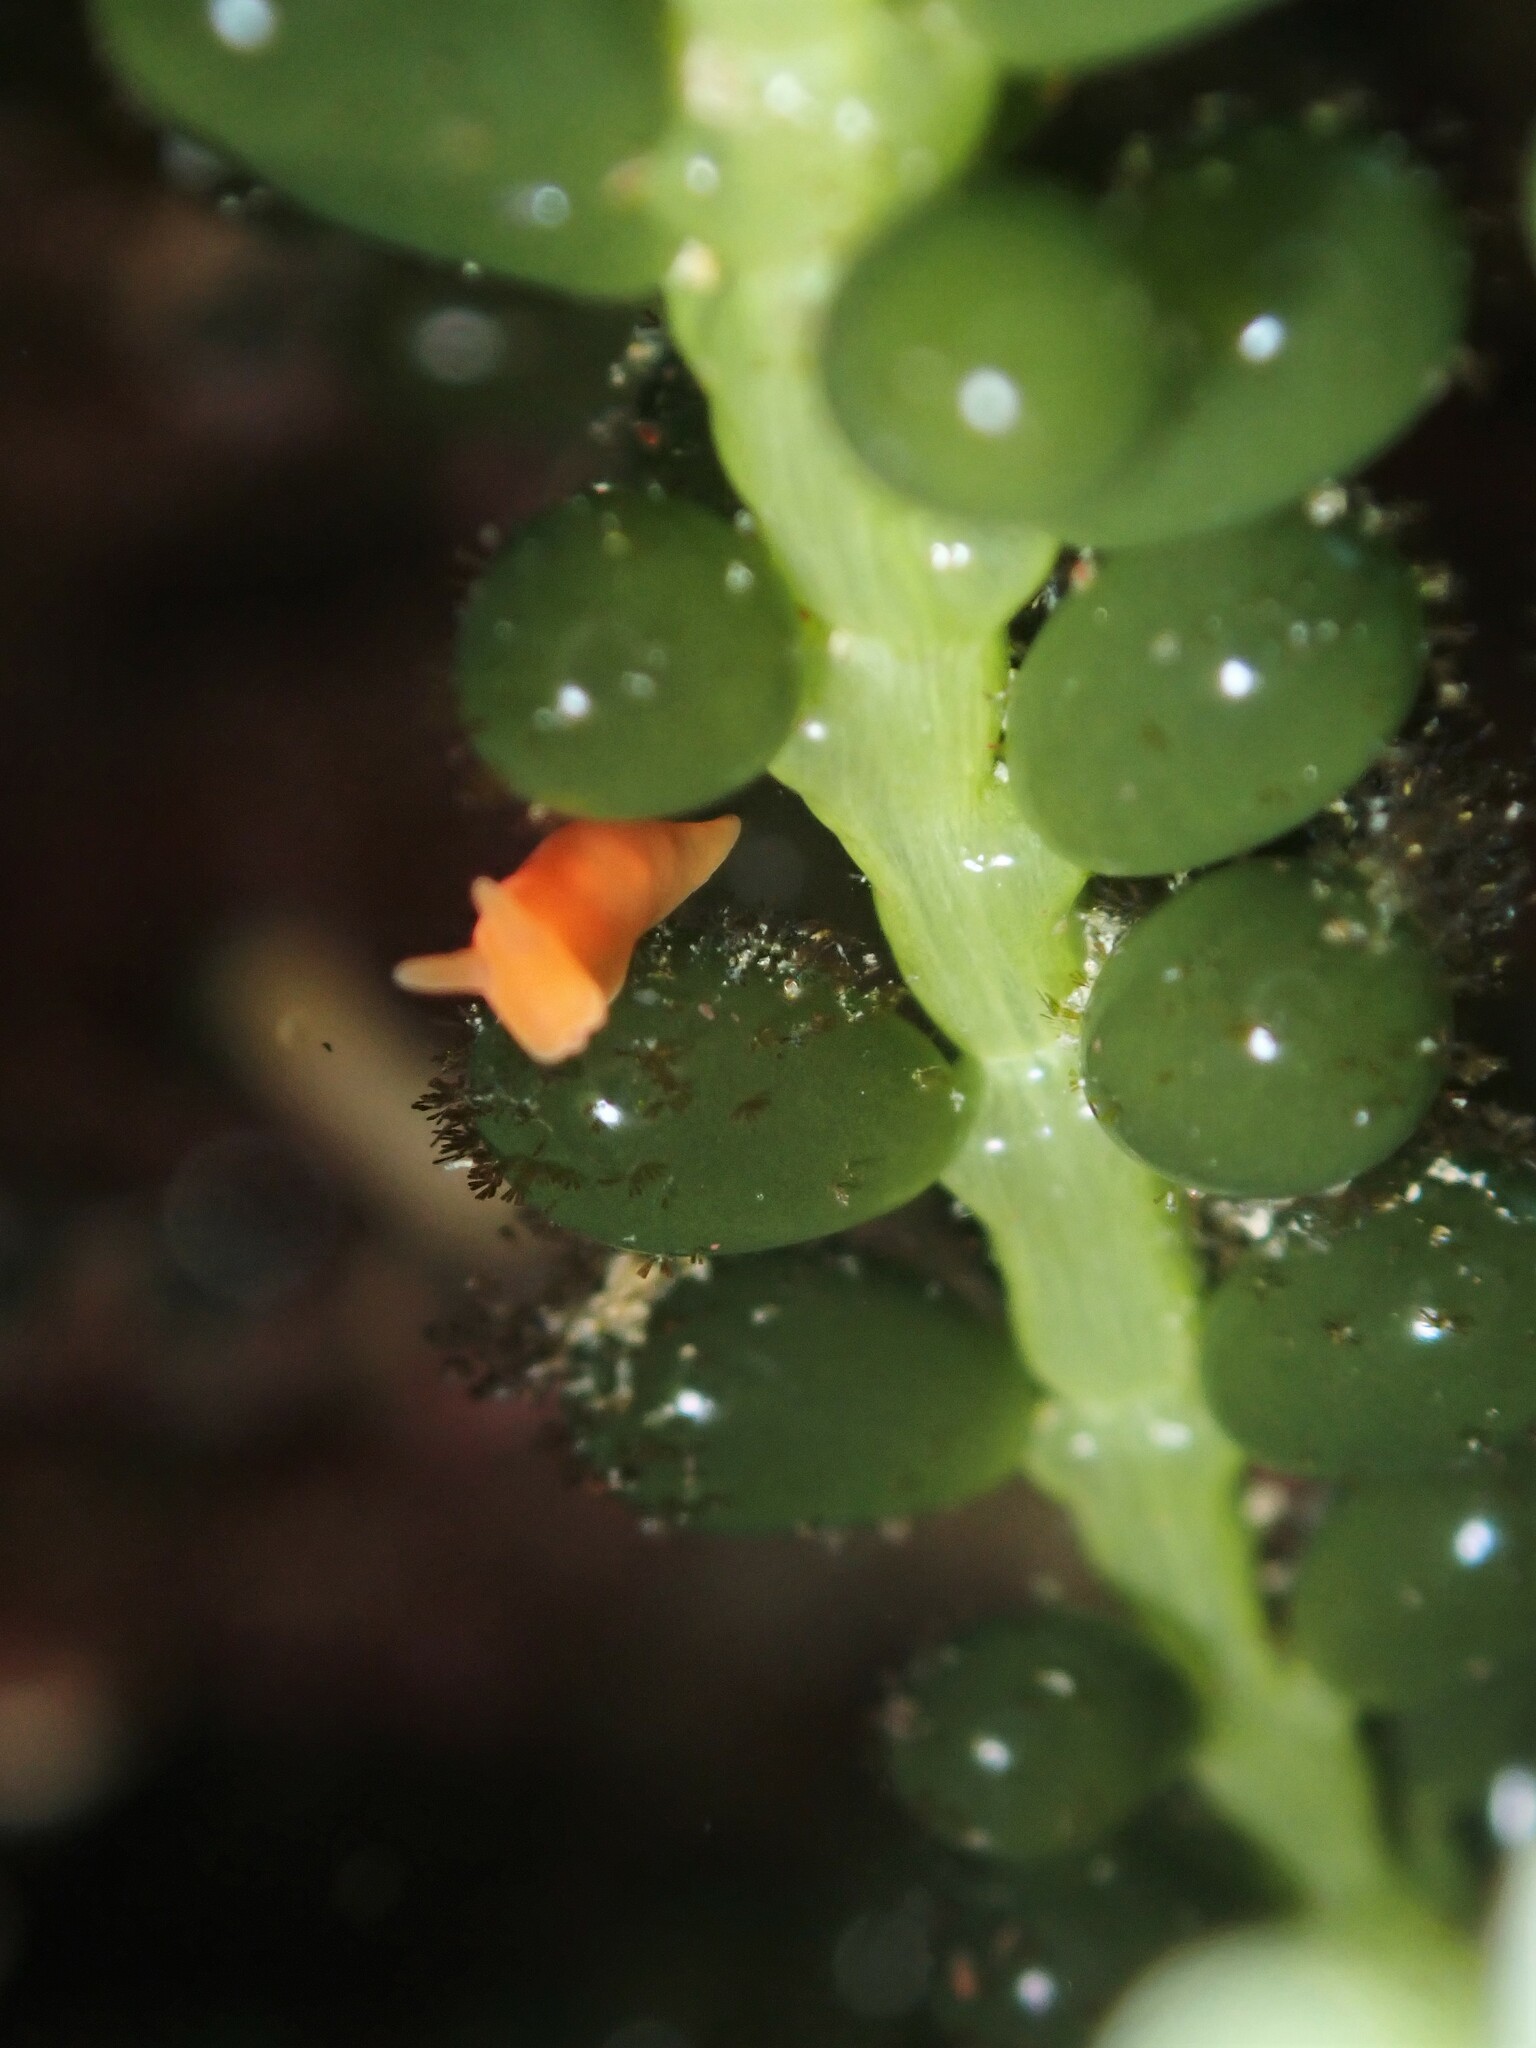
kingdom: Animalia
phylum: Mollusca
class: Gastropoda
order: Nudibranchia
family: Okadaiidae
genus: Vayssierea
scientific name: Vayssierea cinnabarea
